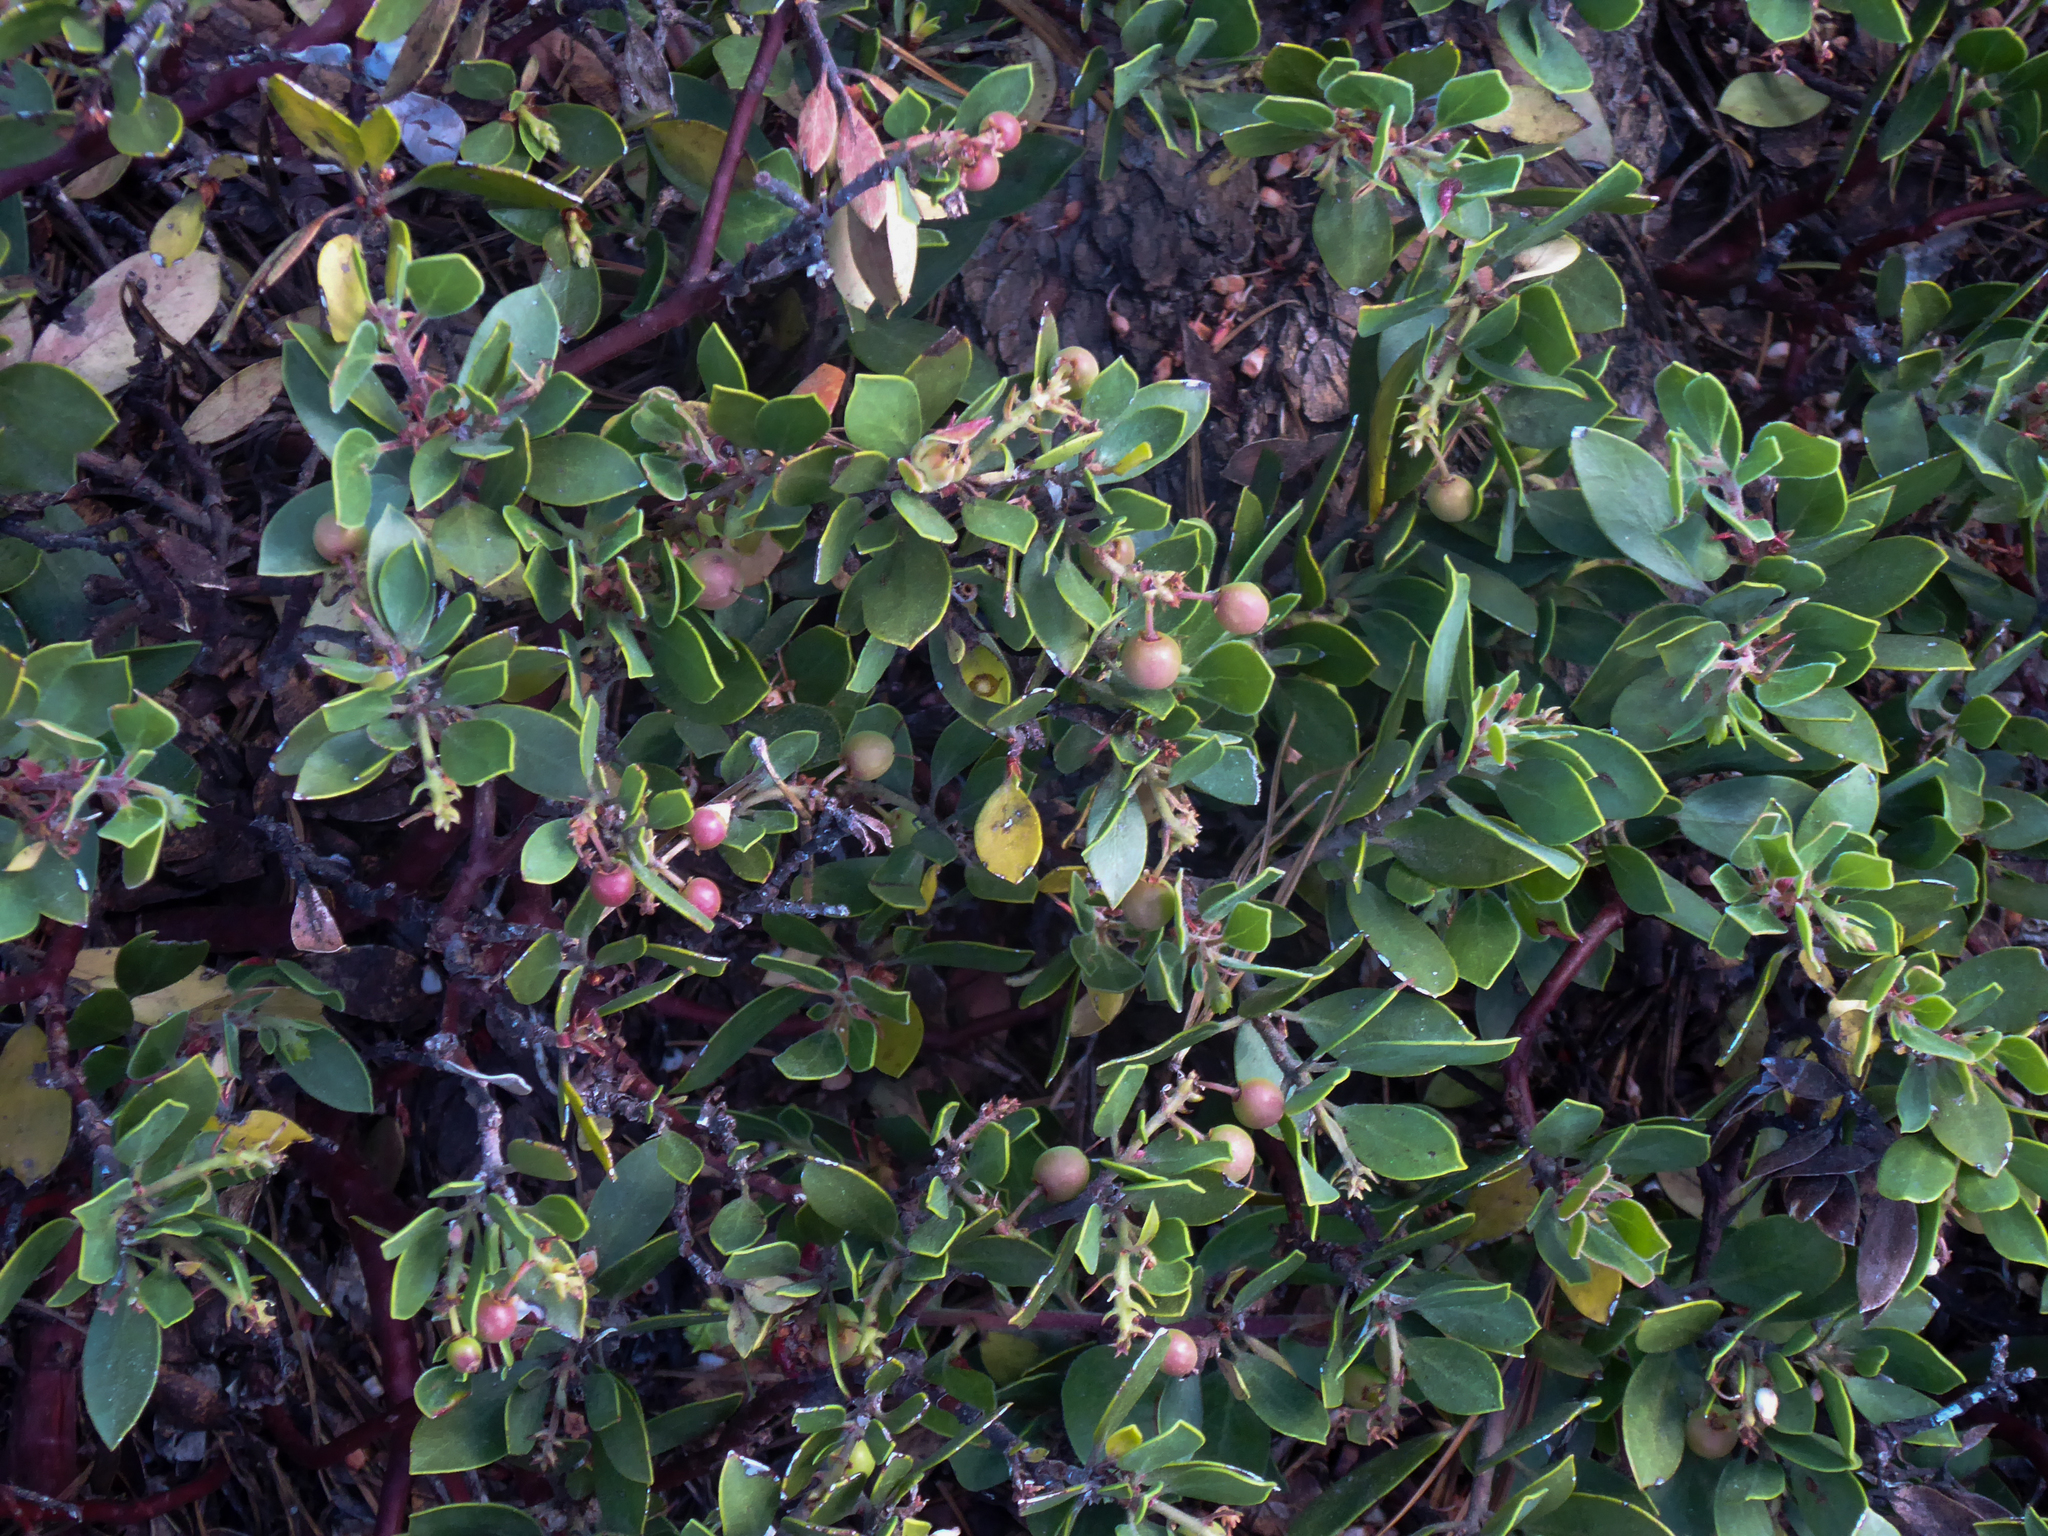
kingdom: Plantae
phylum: Tracheophyta
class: Magnoliopsida
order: Ericales
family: Ericaceae
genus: Arctostaphylos
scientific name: Arctostaphylos nevadensis
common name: Pinemat manzanita
